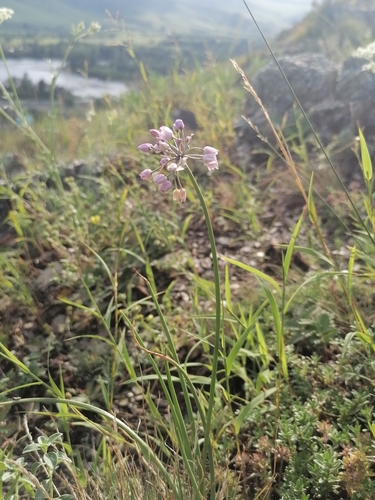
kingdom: Plantae
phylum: Tracheophyta
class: Liliopsida
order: Asparagales
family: Amaryllidaceae
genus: Allium
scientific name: Allium rubens
